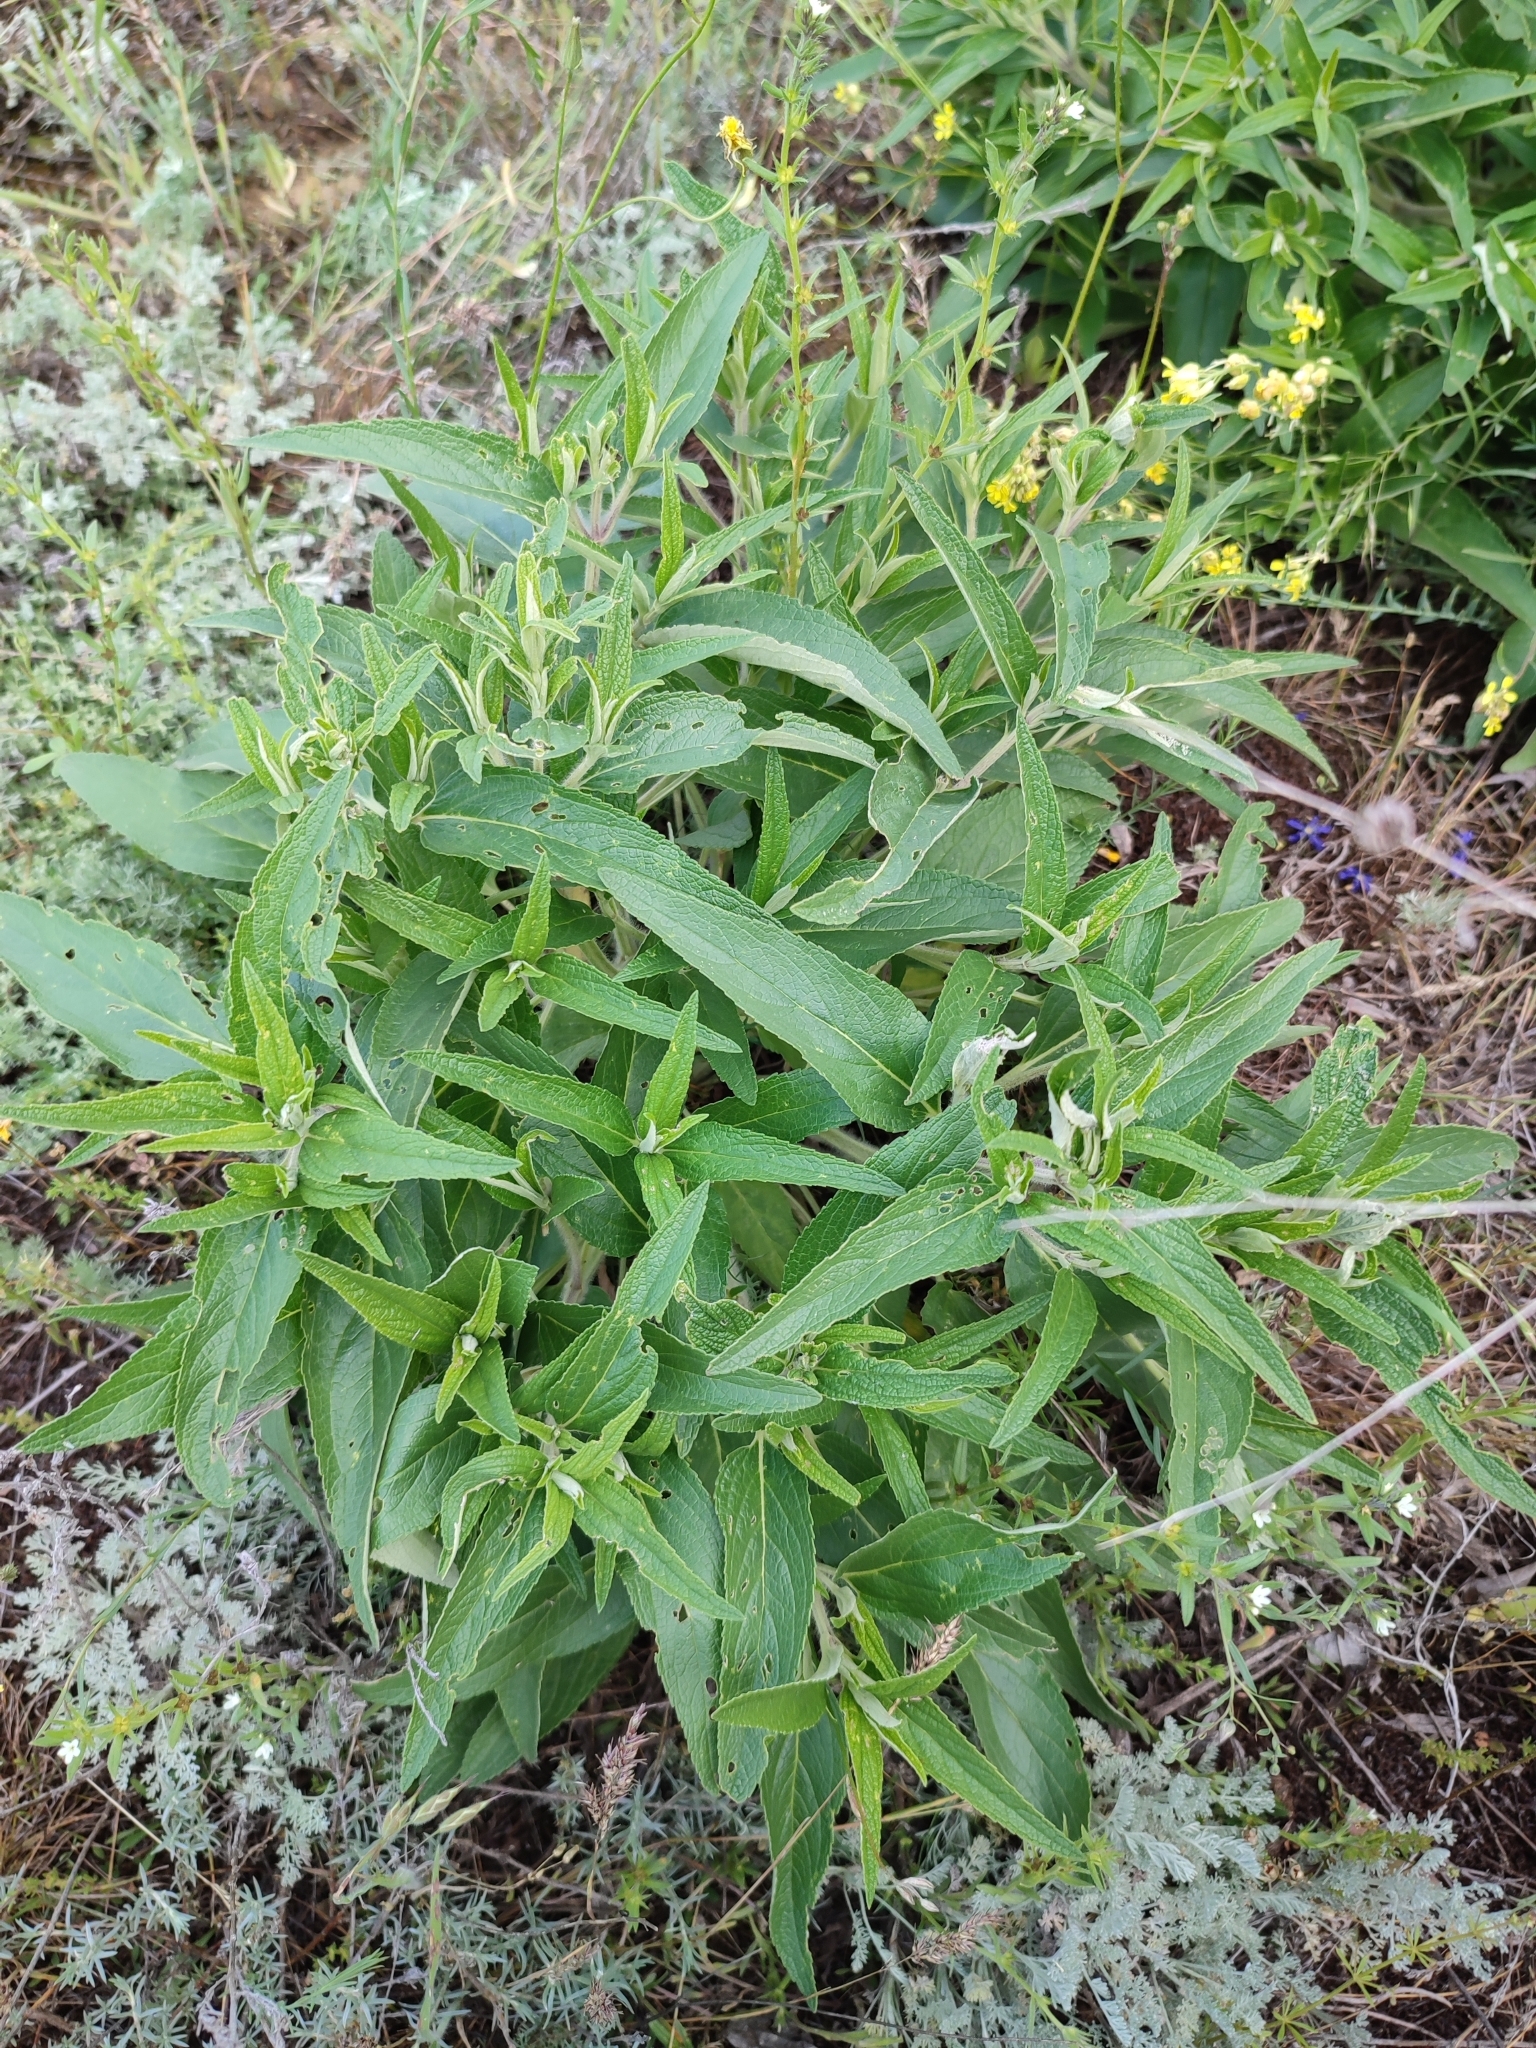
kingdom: Plantae
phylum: Tracheophyta
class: Magnoliopsida
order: Lamiales
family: Lamiaceae
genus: Phlomis
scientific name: Phlomis herba-venti
